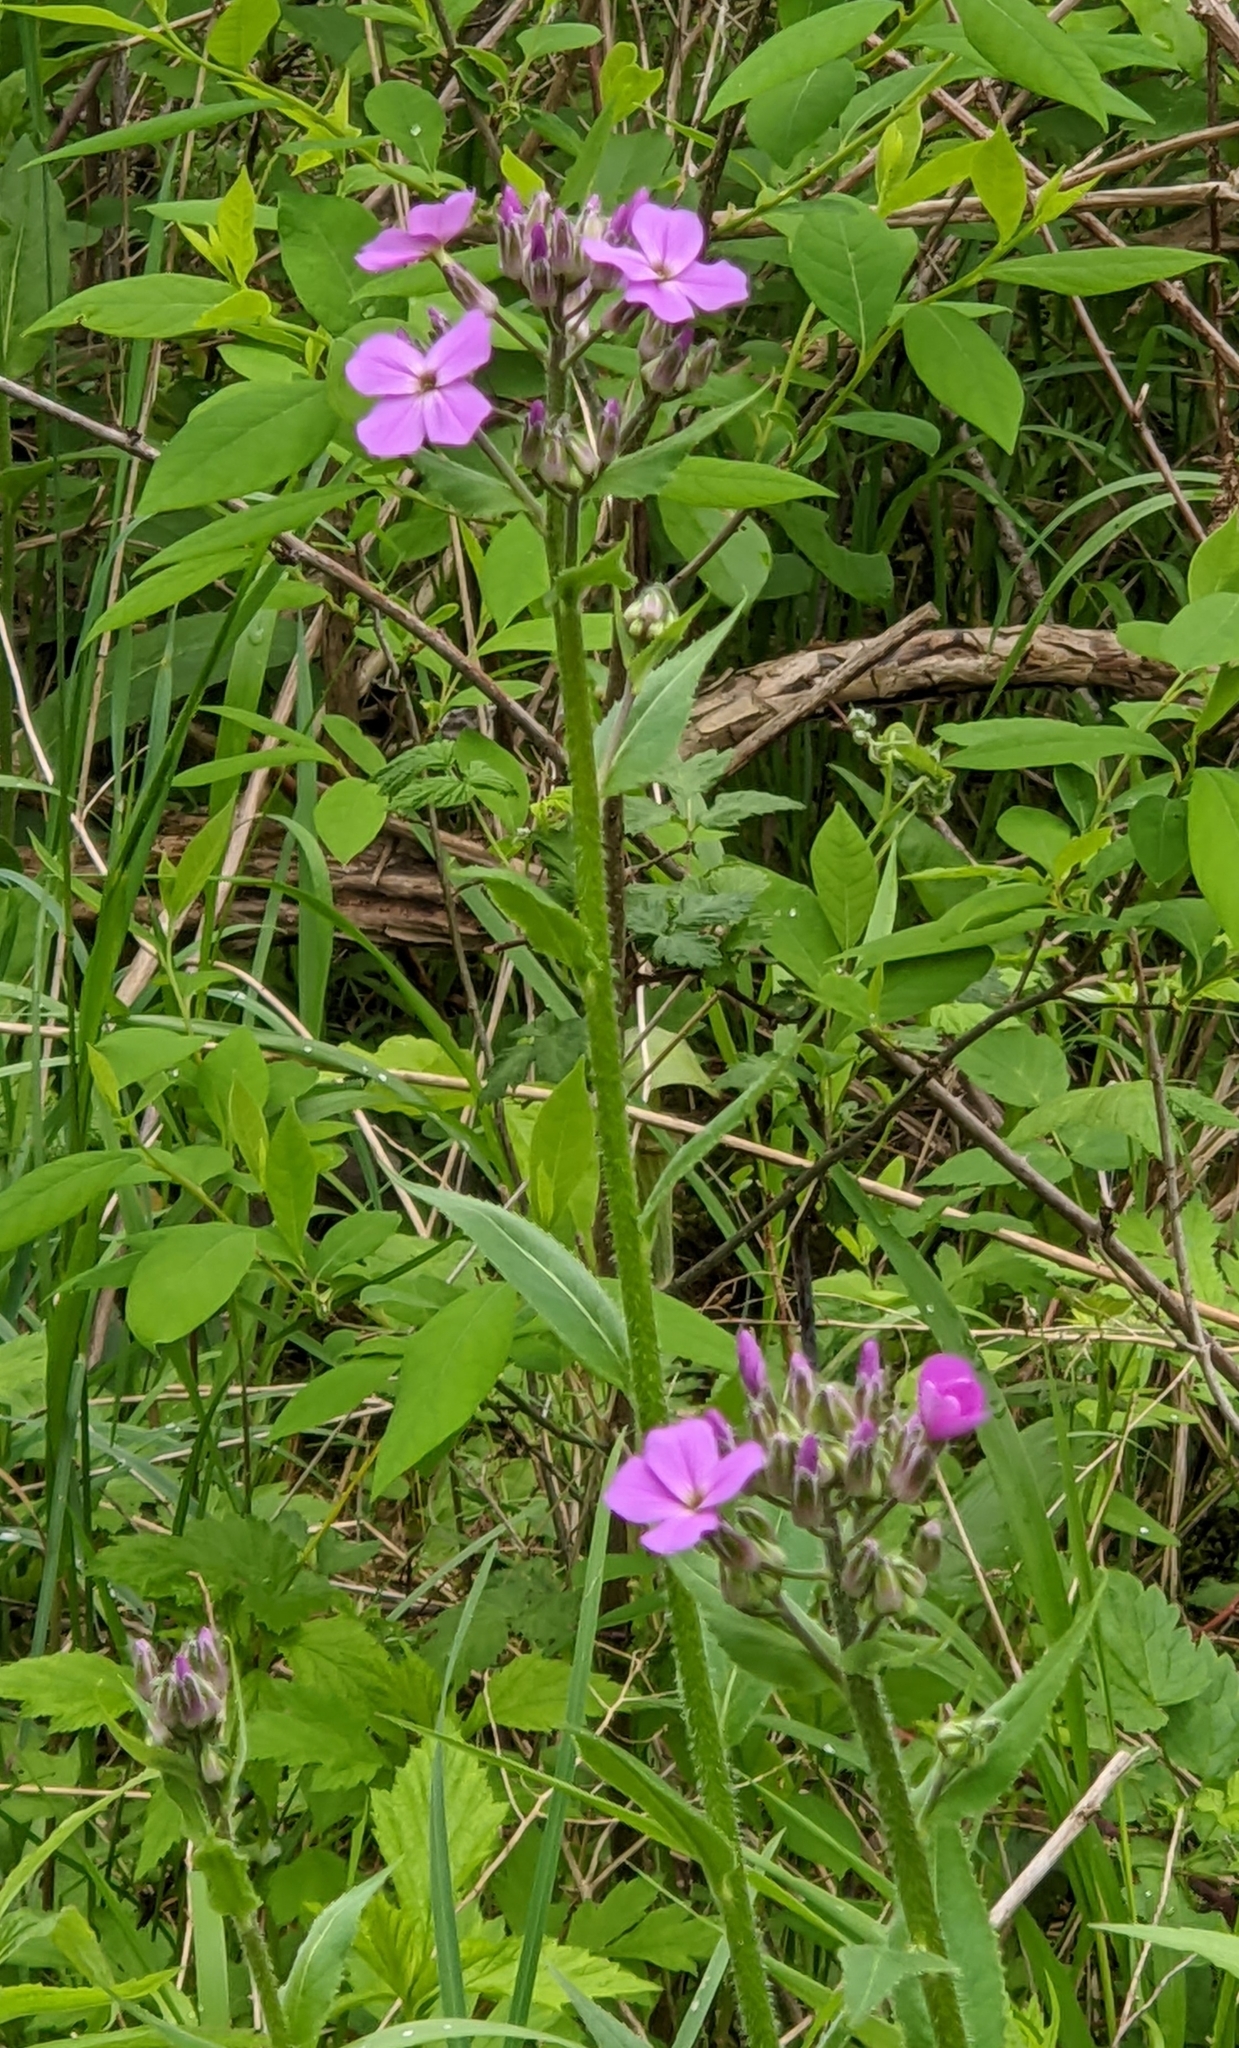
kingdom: Plantae
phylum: Tracheophyta
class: Magnoliopsida
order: Brassicales
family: Brassicaceae
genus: Hesperis
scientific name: Hesperis matronalis
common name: Dame's-violet
